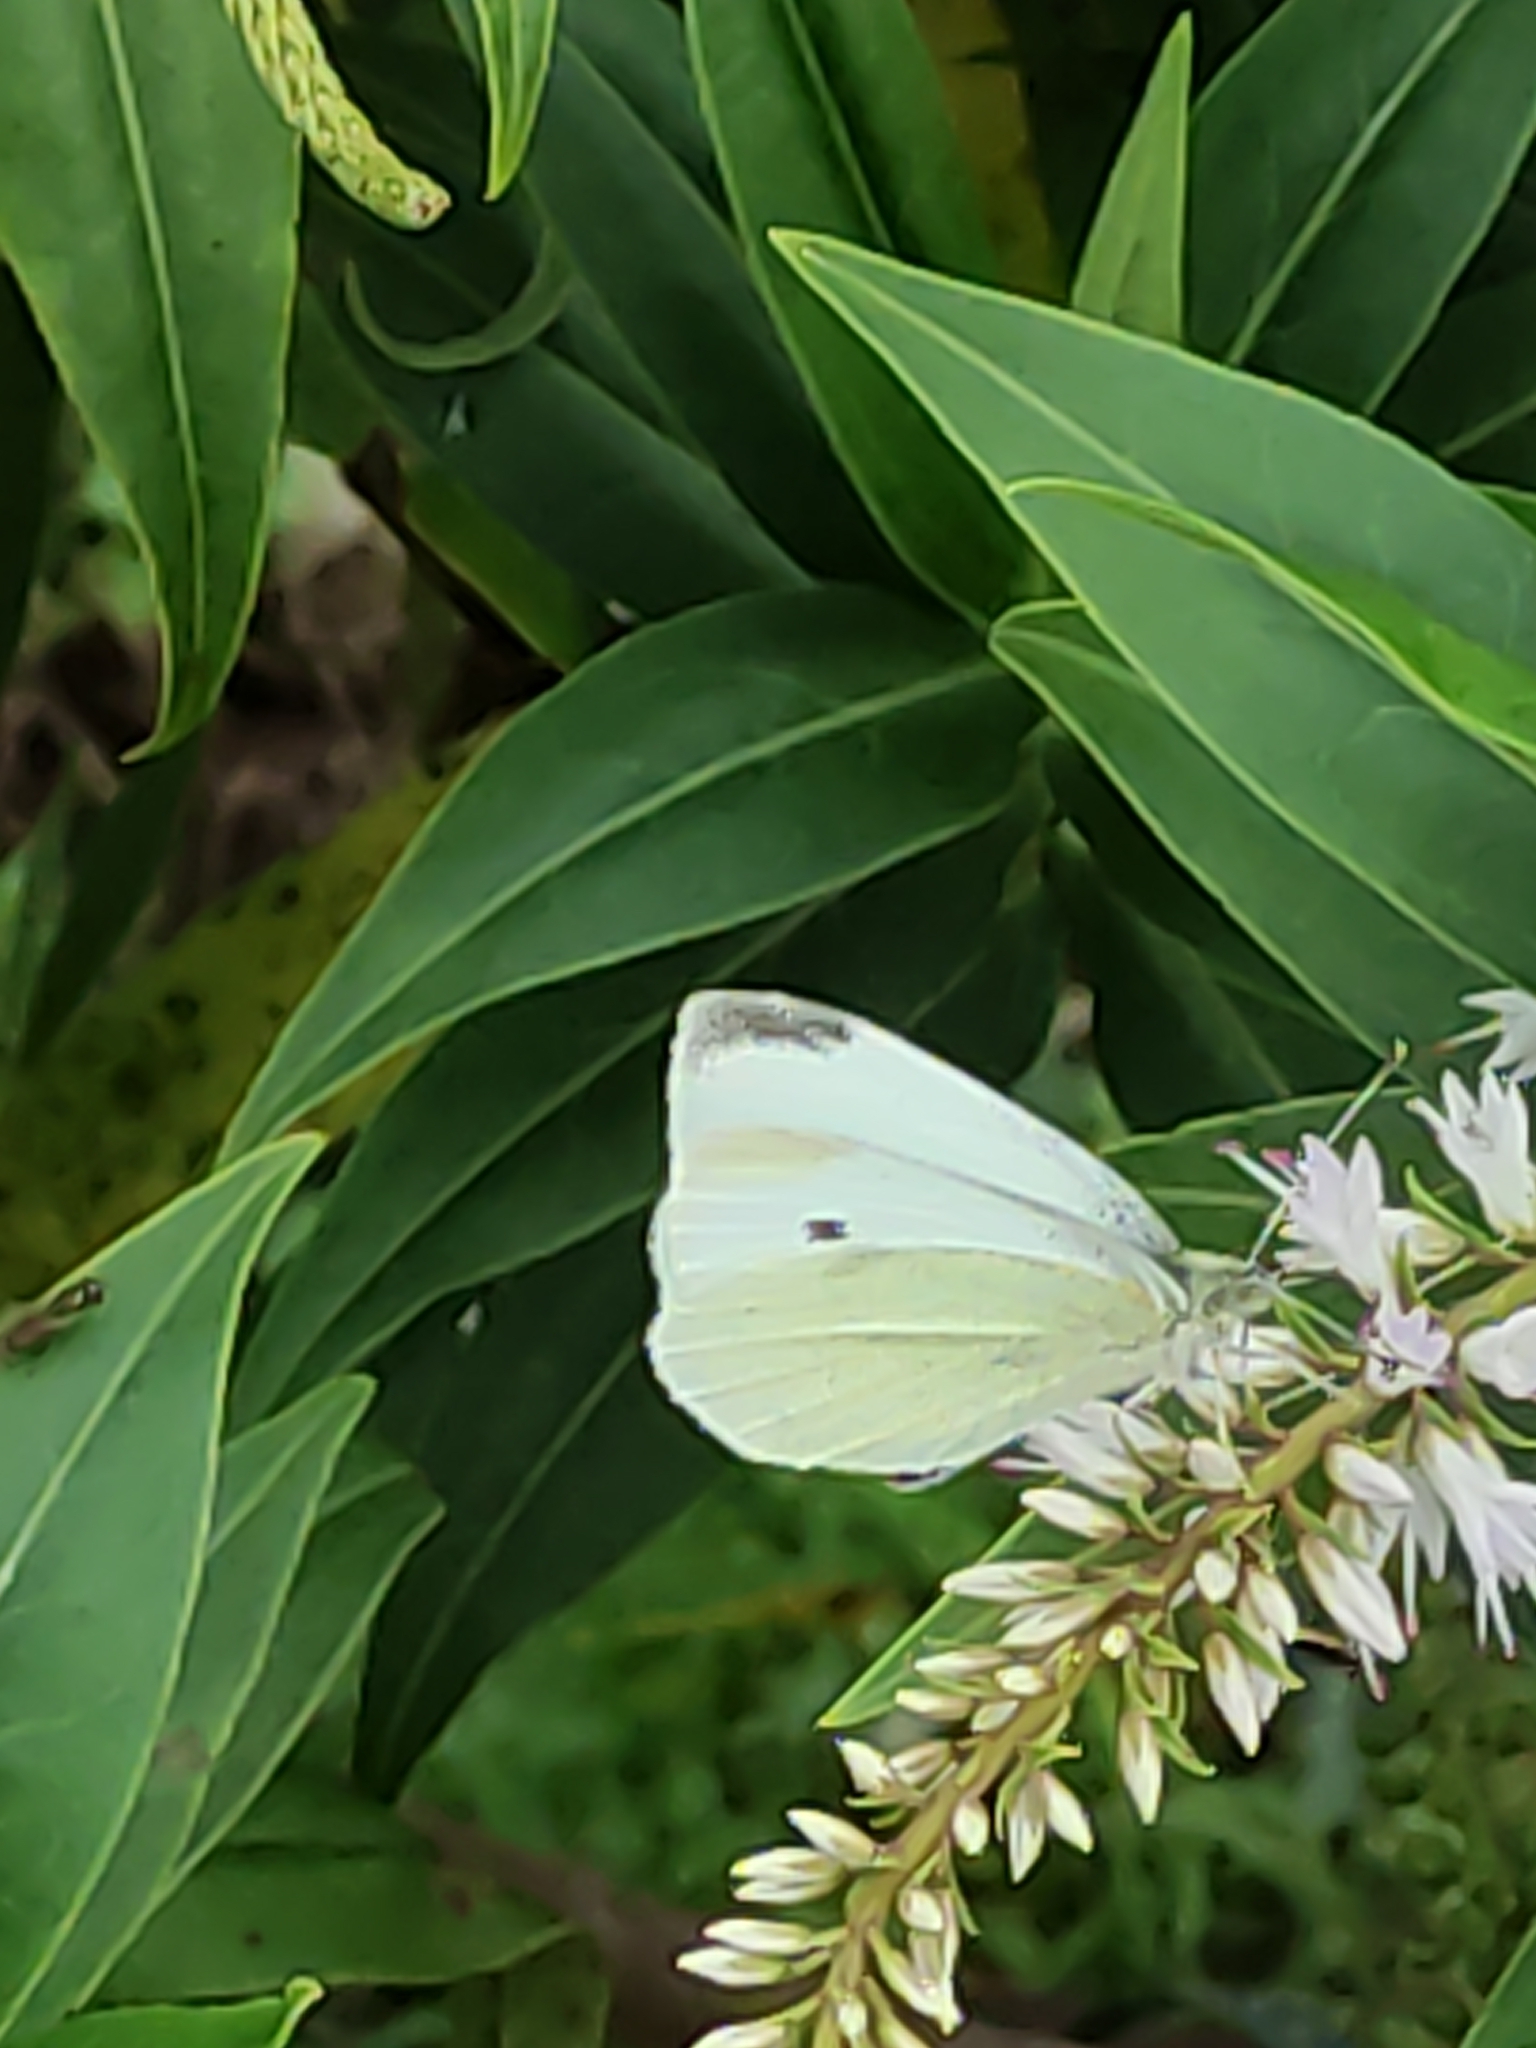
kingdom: Animalia
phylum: Arthropoda
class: Insecta
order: Lepidoptera
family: Pieridae
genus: Pieris
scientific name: Pieris rapae
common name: Small white
